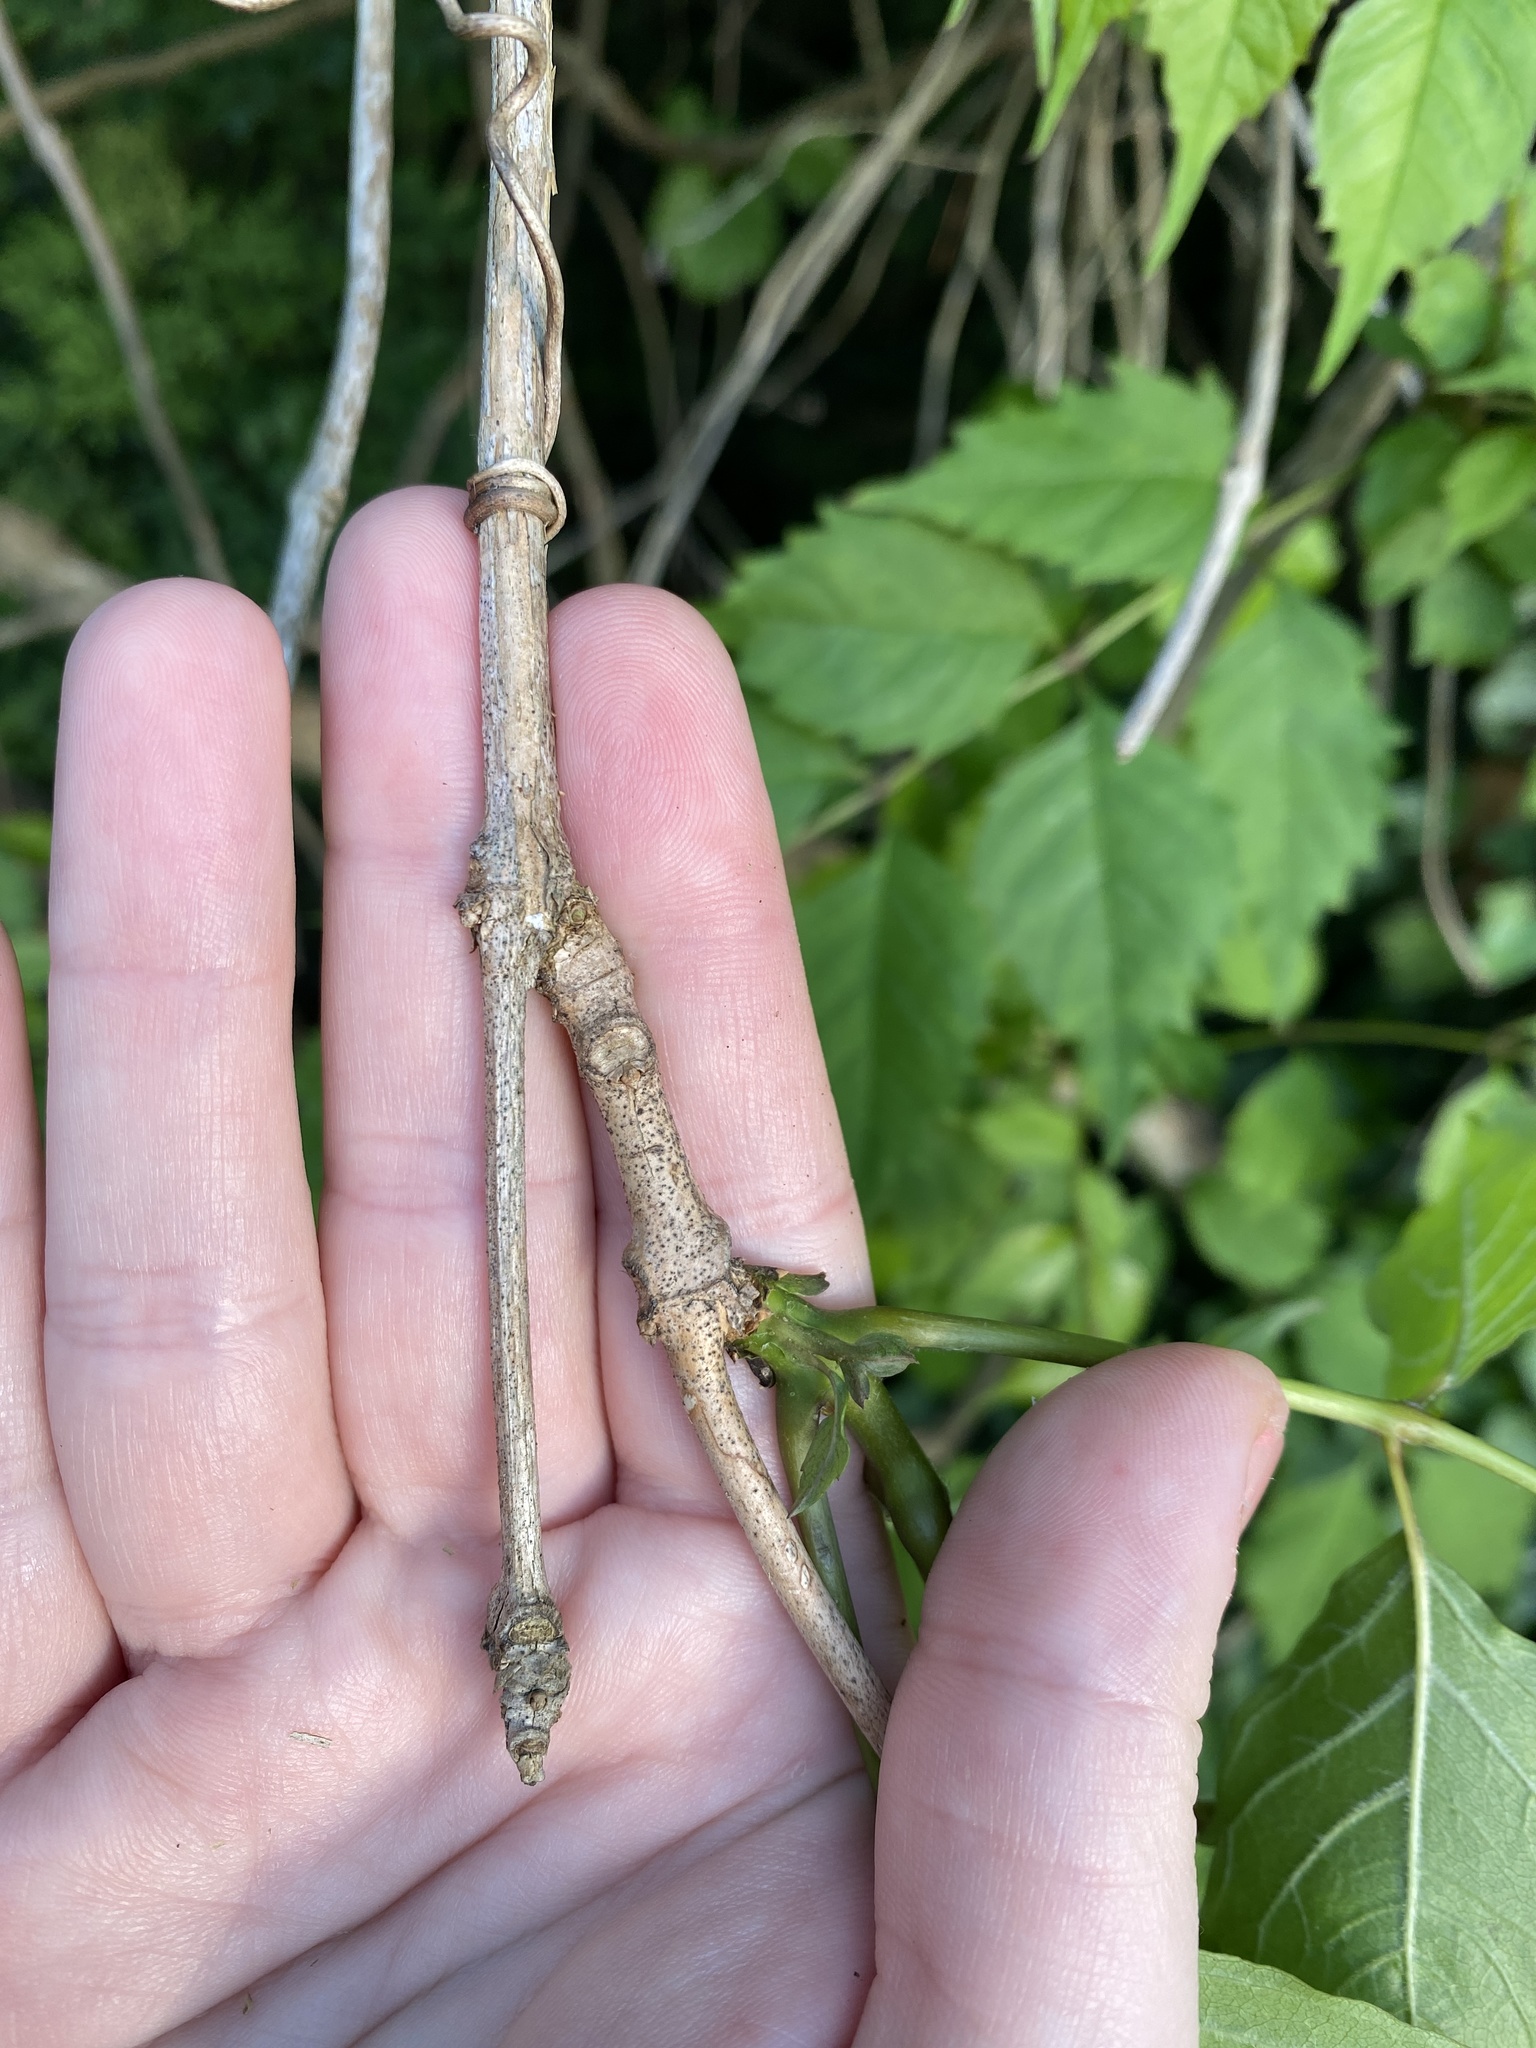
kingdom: Plantae
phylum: Tracheophyta
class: Magnoliopsida
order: Lamiales
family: Bignoniaceae
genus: Campsis
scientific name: Campsis radicans
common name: Trumpet-creeper
